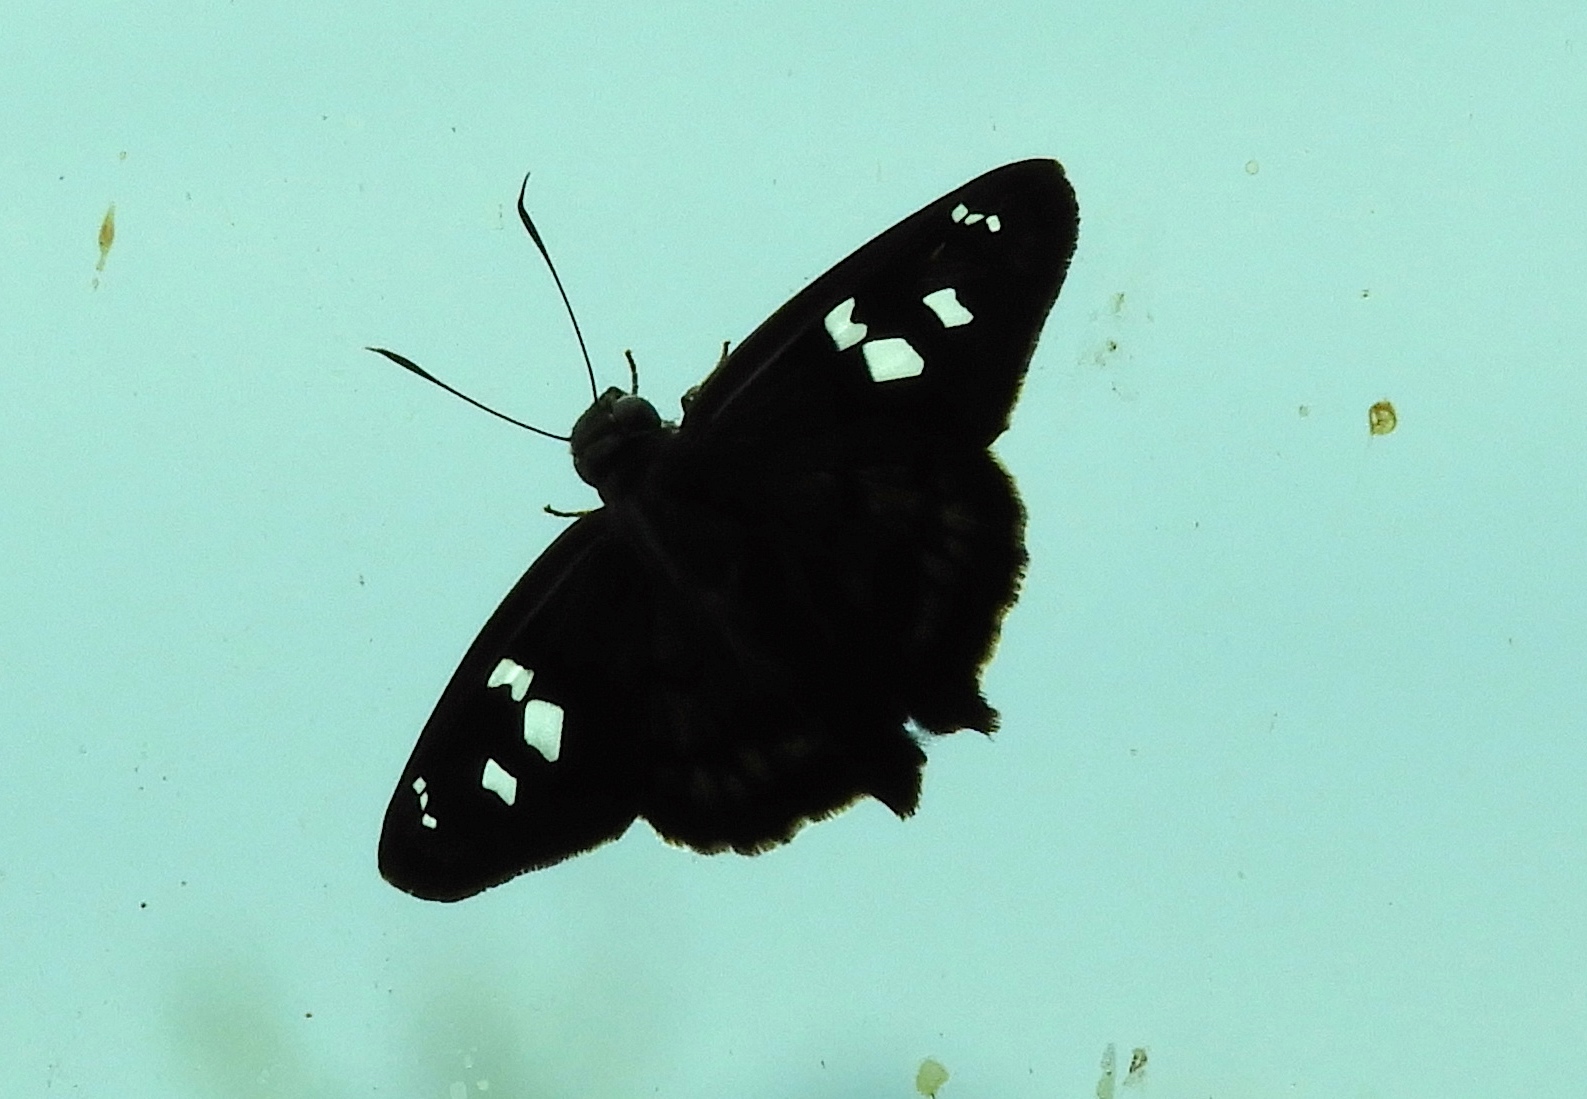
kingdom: Animalia
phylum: Arthropoda
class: Insecta
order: Lepidoptera
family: Hesperiidae
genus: Polygonus
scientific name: Polygonus
